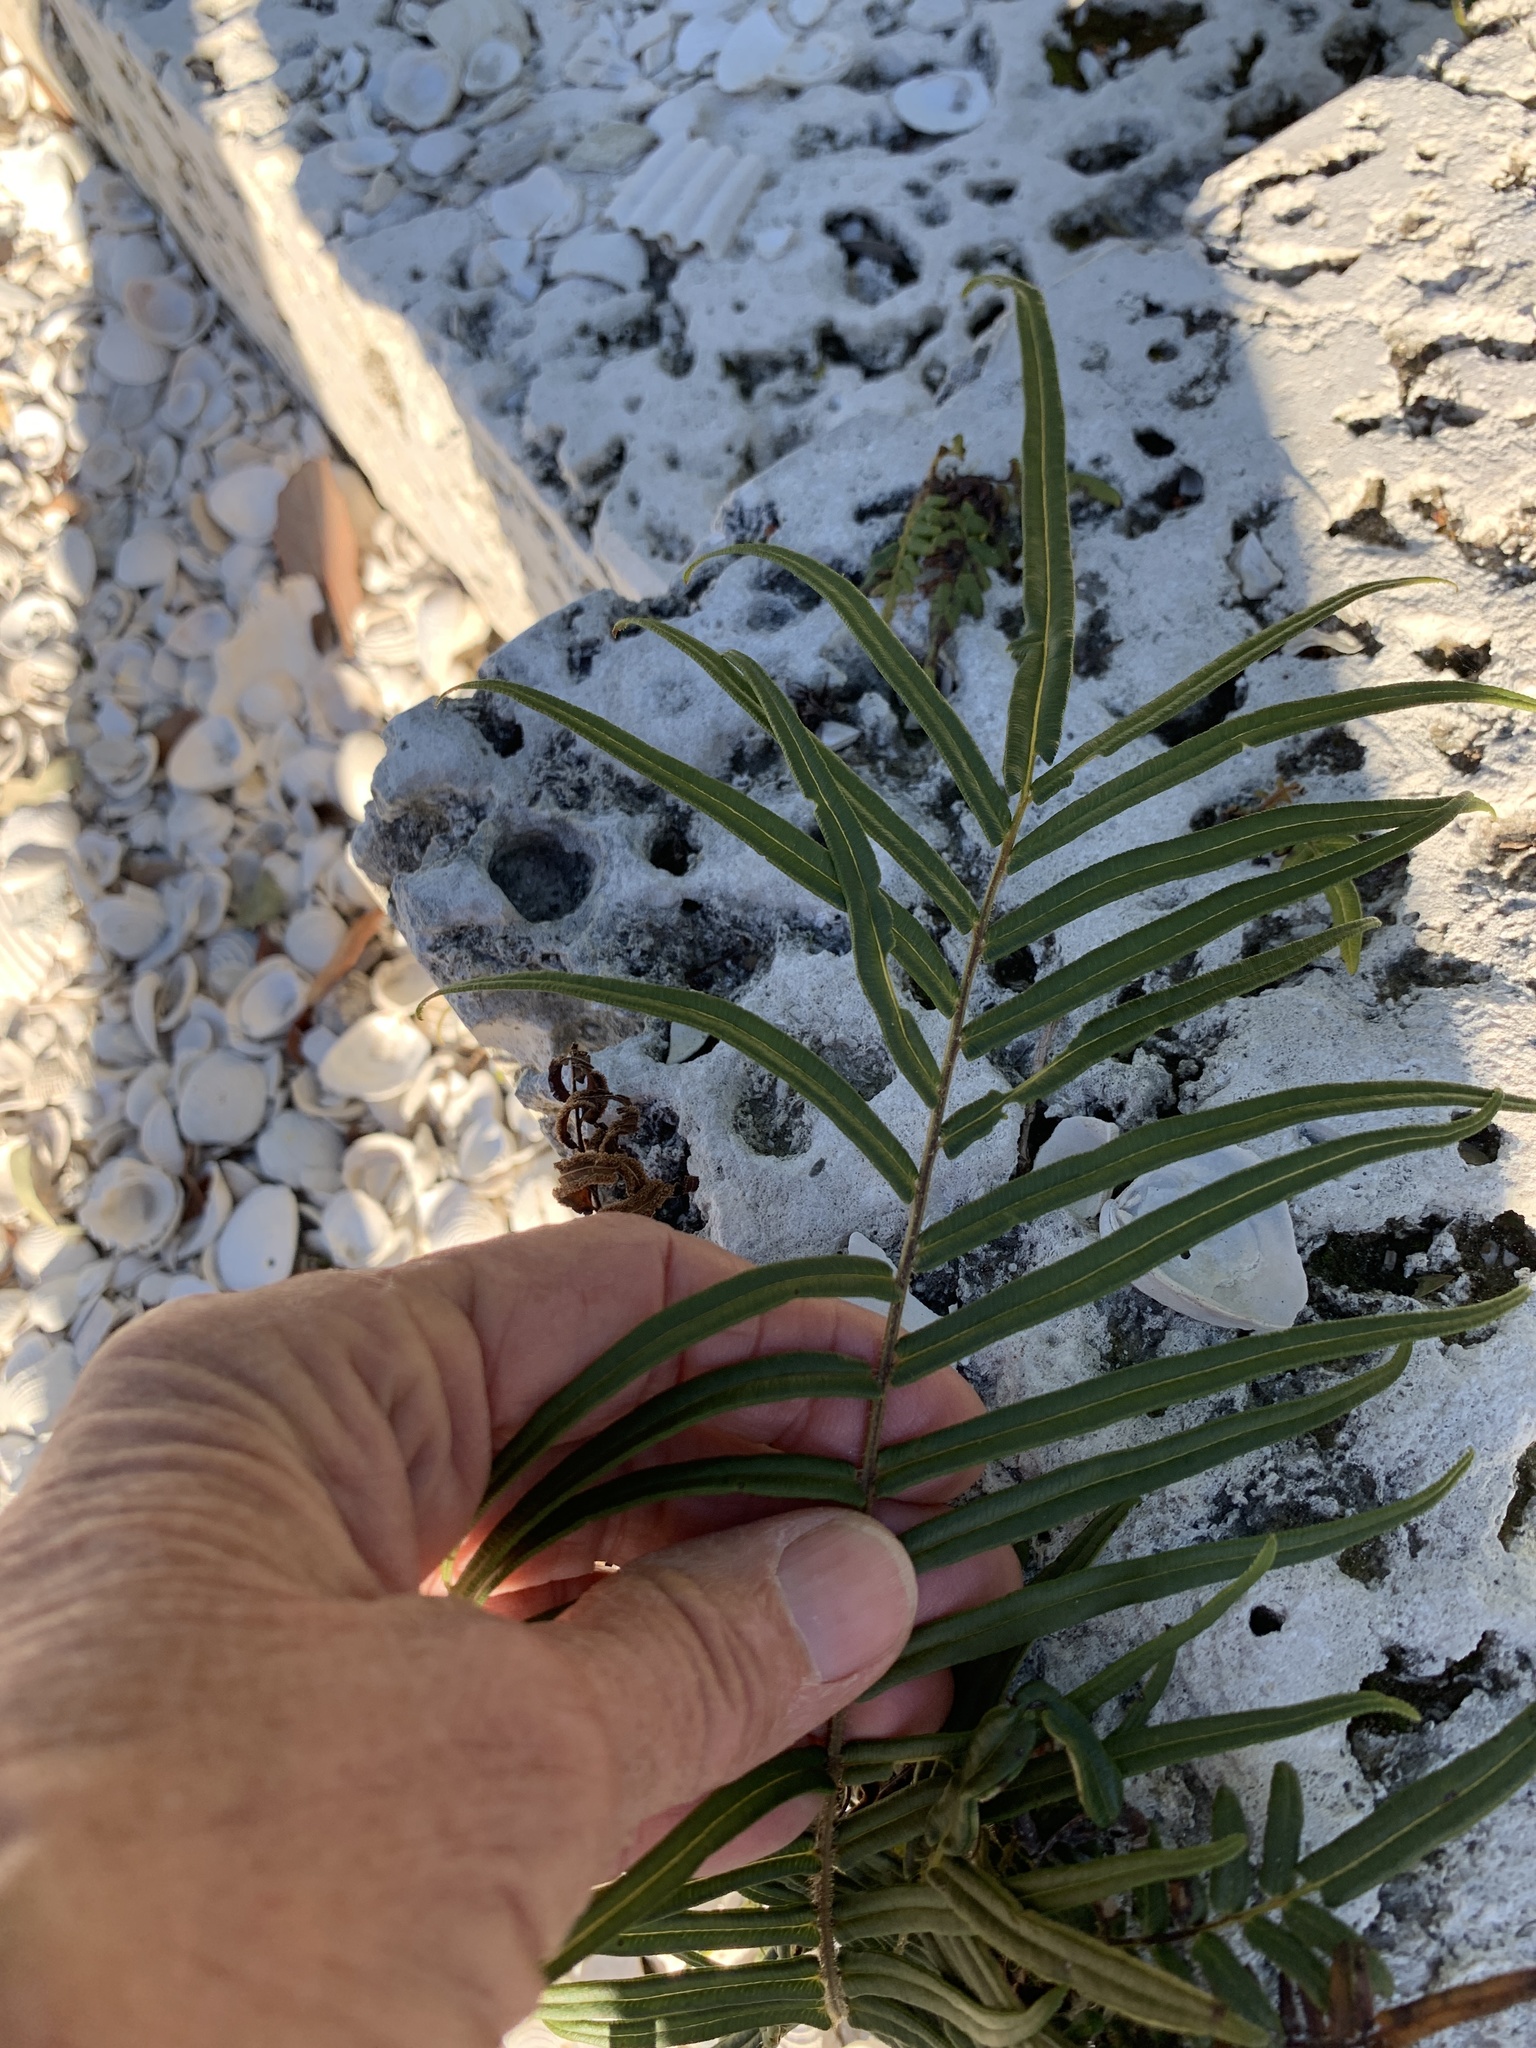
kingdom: Plantae
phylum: Tracheophyta
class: Polypodiopsida
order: Polypodiales
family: Pteridaceae
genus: Pteris
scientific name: Pteris vittata
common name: Ladder brake
